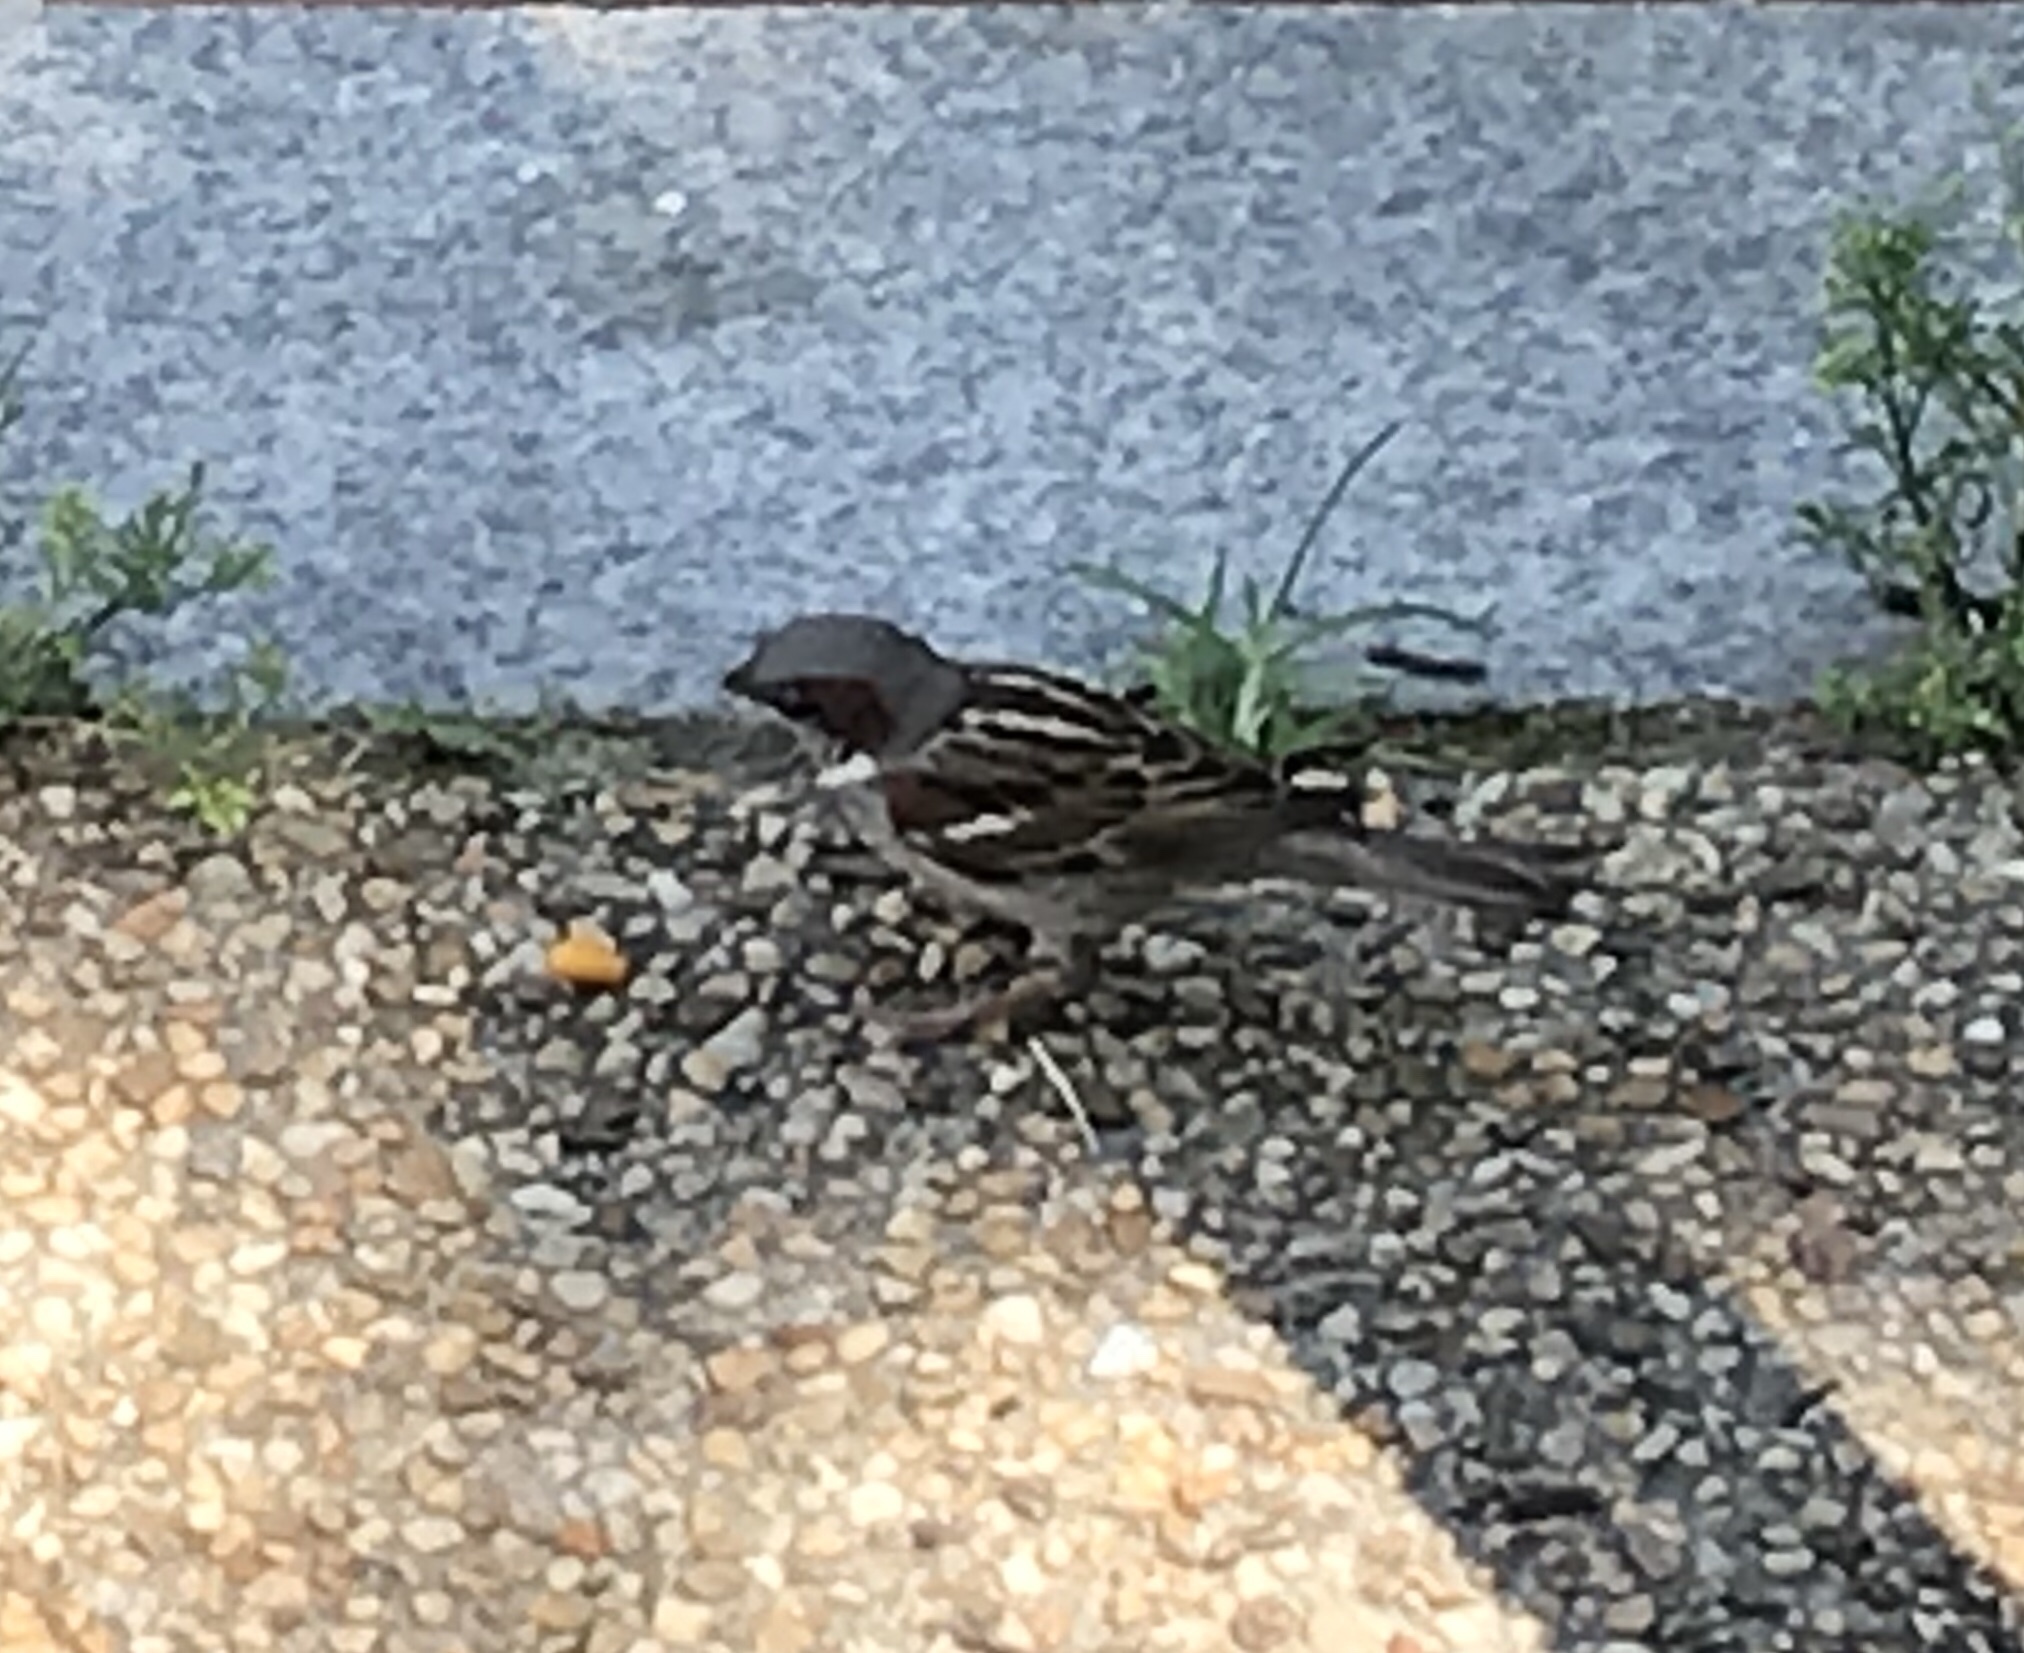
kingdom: Animalia
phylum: Chordata
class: Aves
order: Passeriformes
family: Passeridae
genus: Passer
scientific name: Passer domesticus
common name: House sparrow
